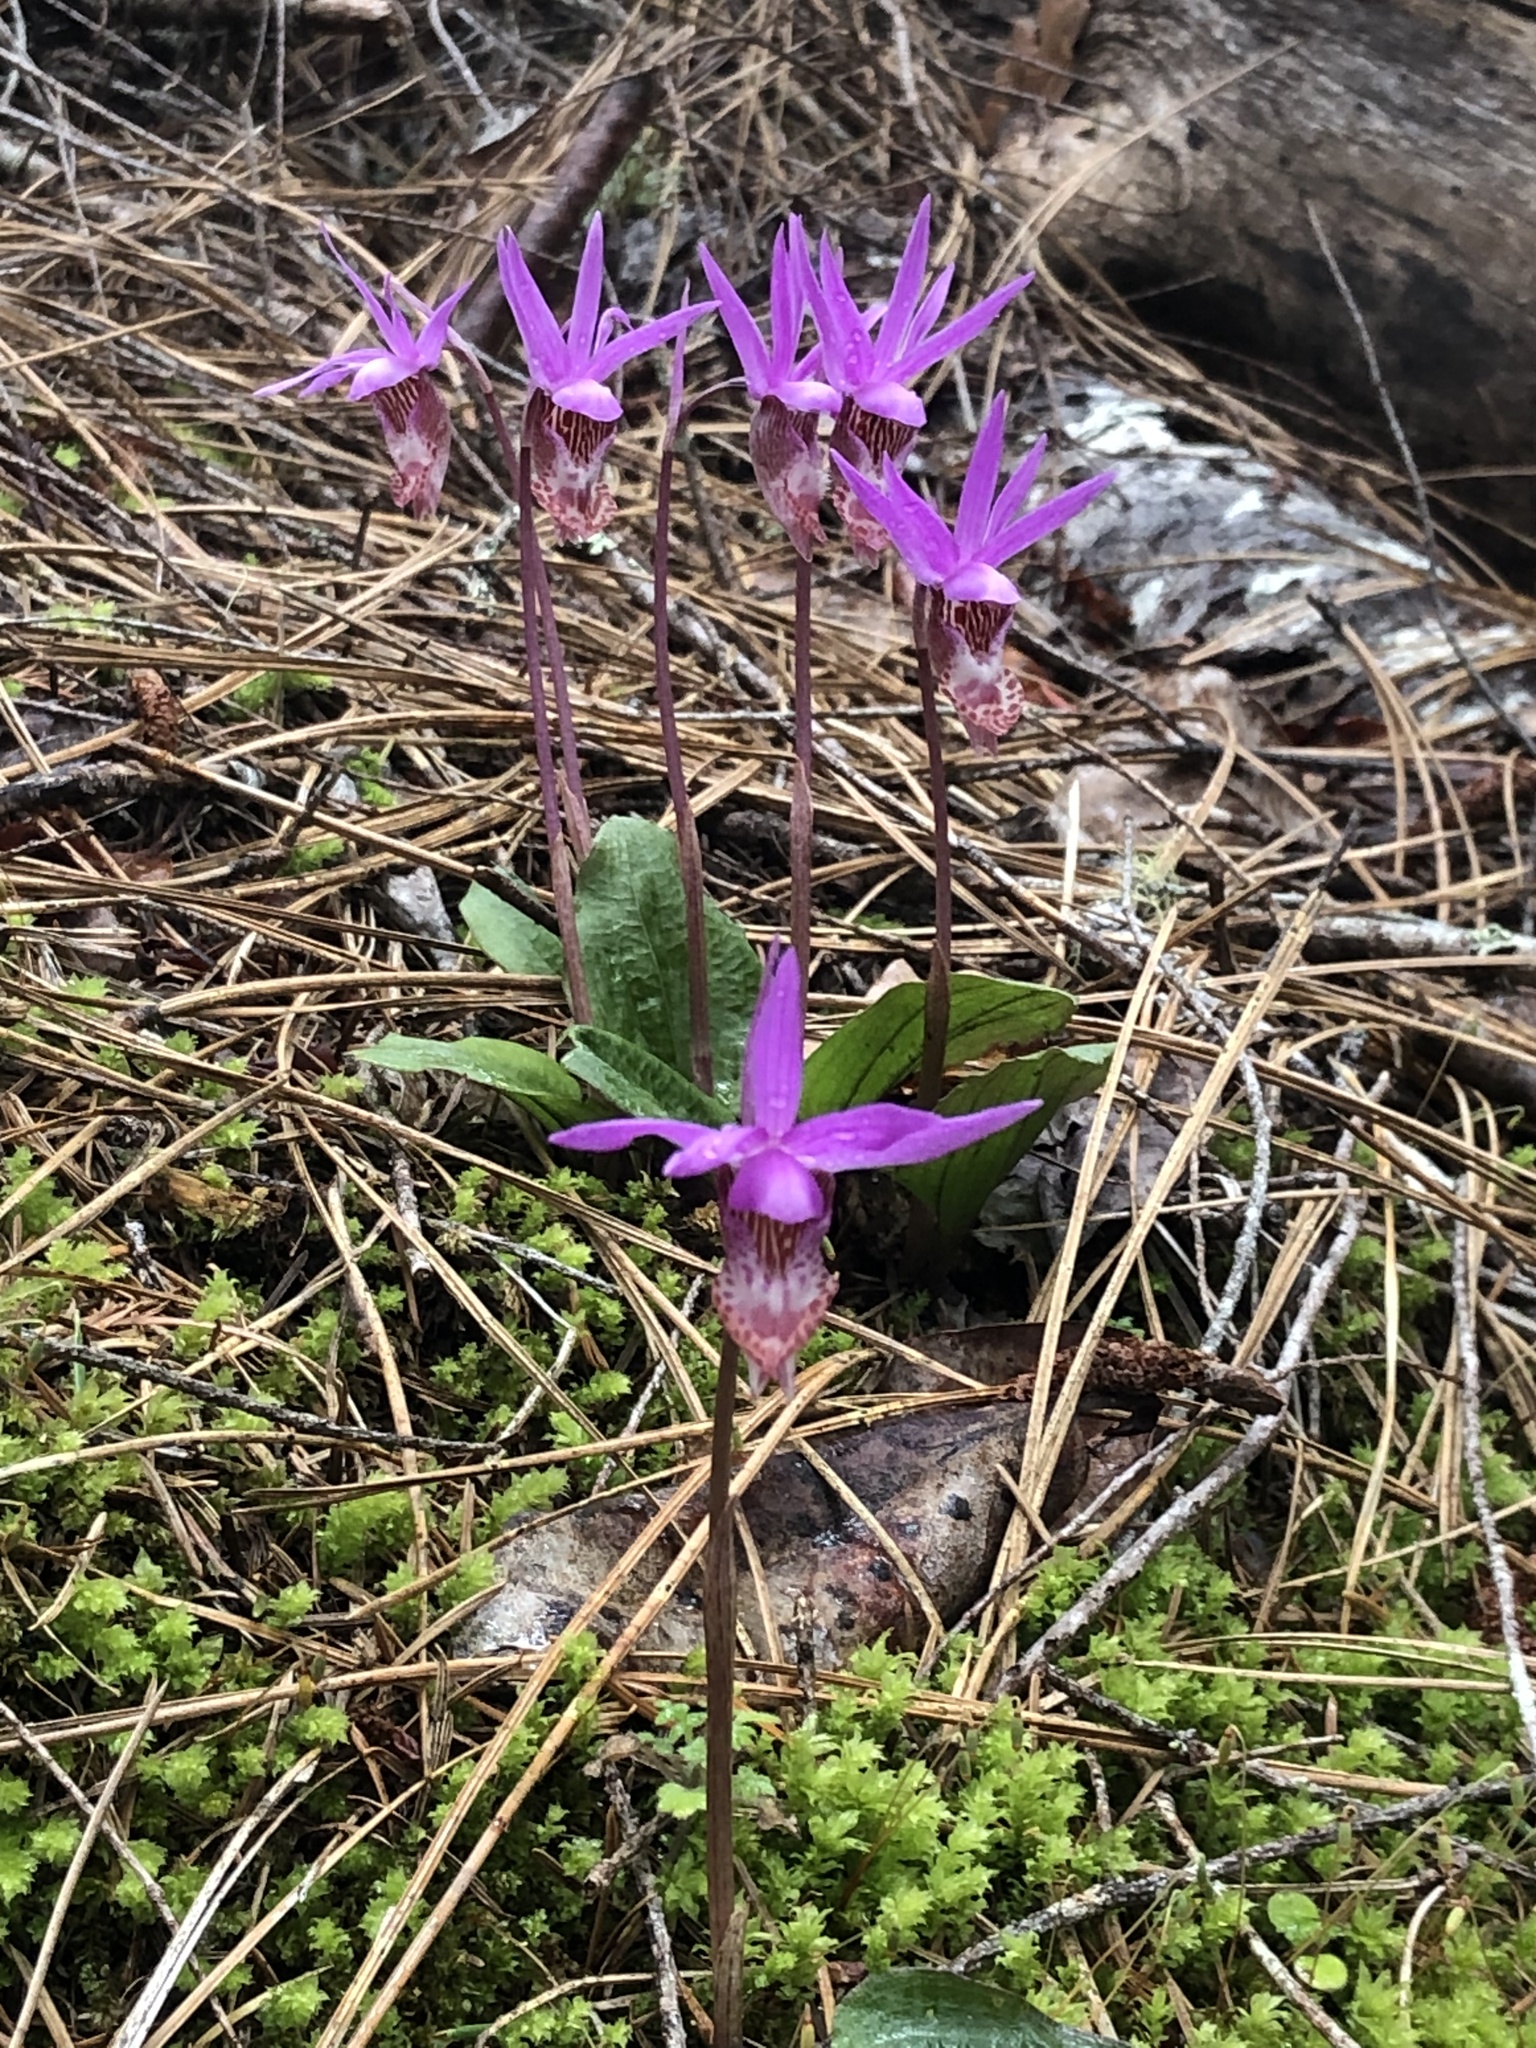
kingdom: Plantae
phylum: Tracheophyta
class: Liliopsida
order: Asparagales
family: Orchidaceae
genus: Calypso
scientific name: Calypso bulbosa
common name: Calypso
